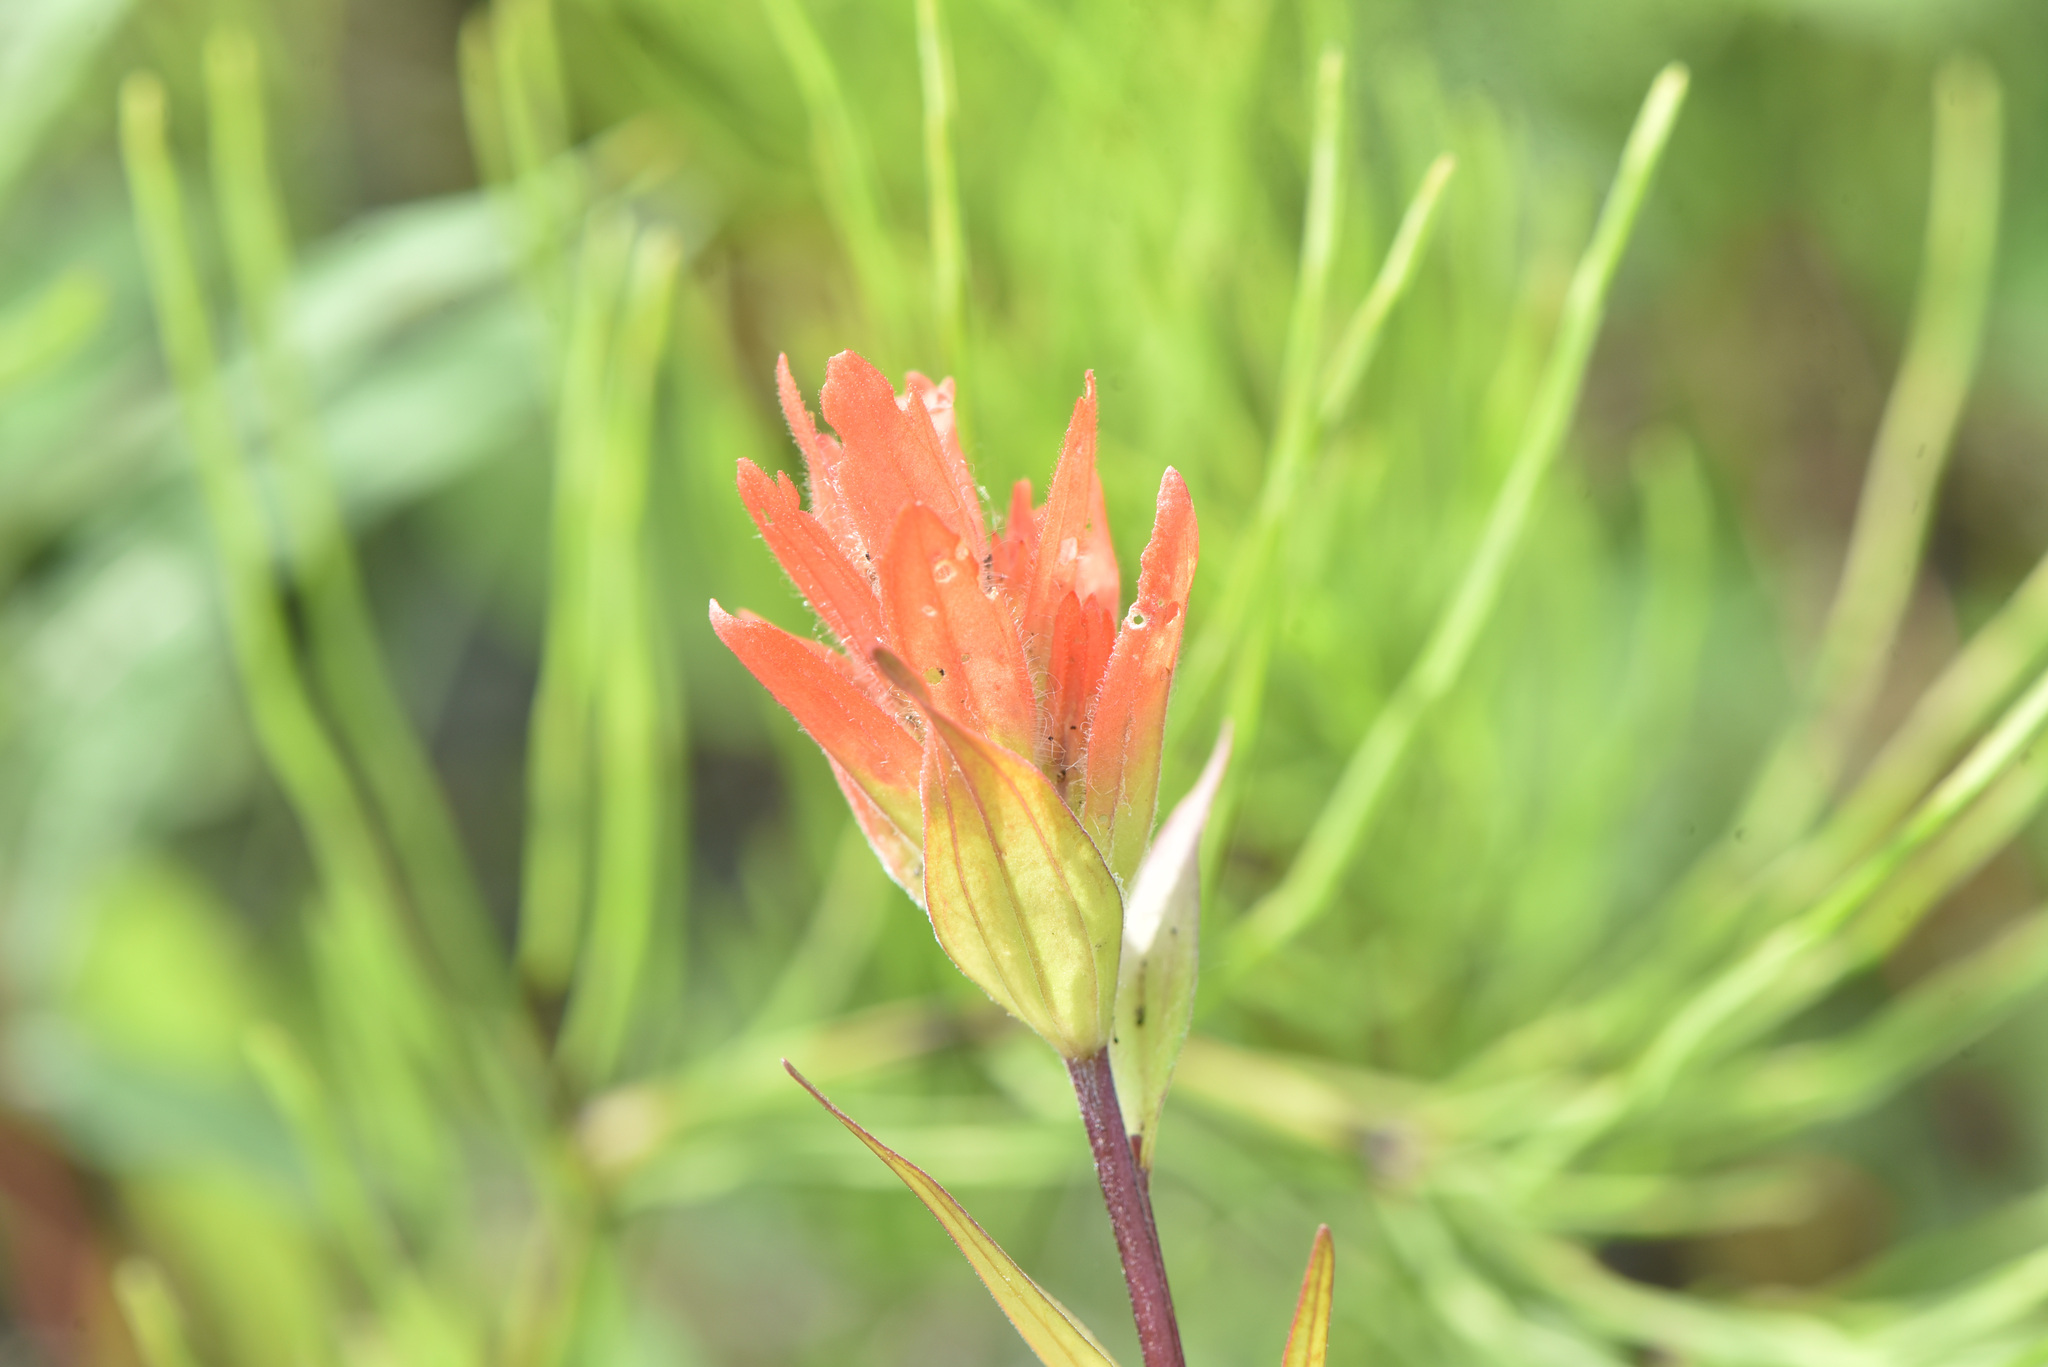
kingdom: Plantae
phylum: Tracheophyta
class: Magnoliopsida
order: Lamiales
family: Orobanchaceae
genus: Castilleja
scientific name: Castilleja miniata
